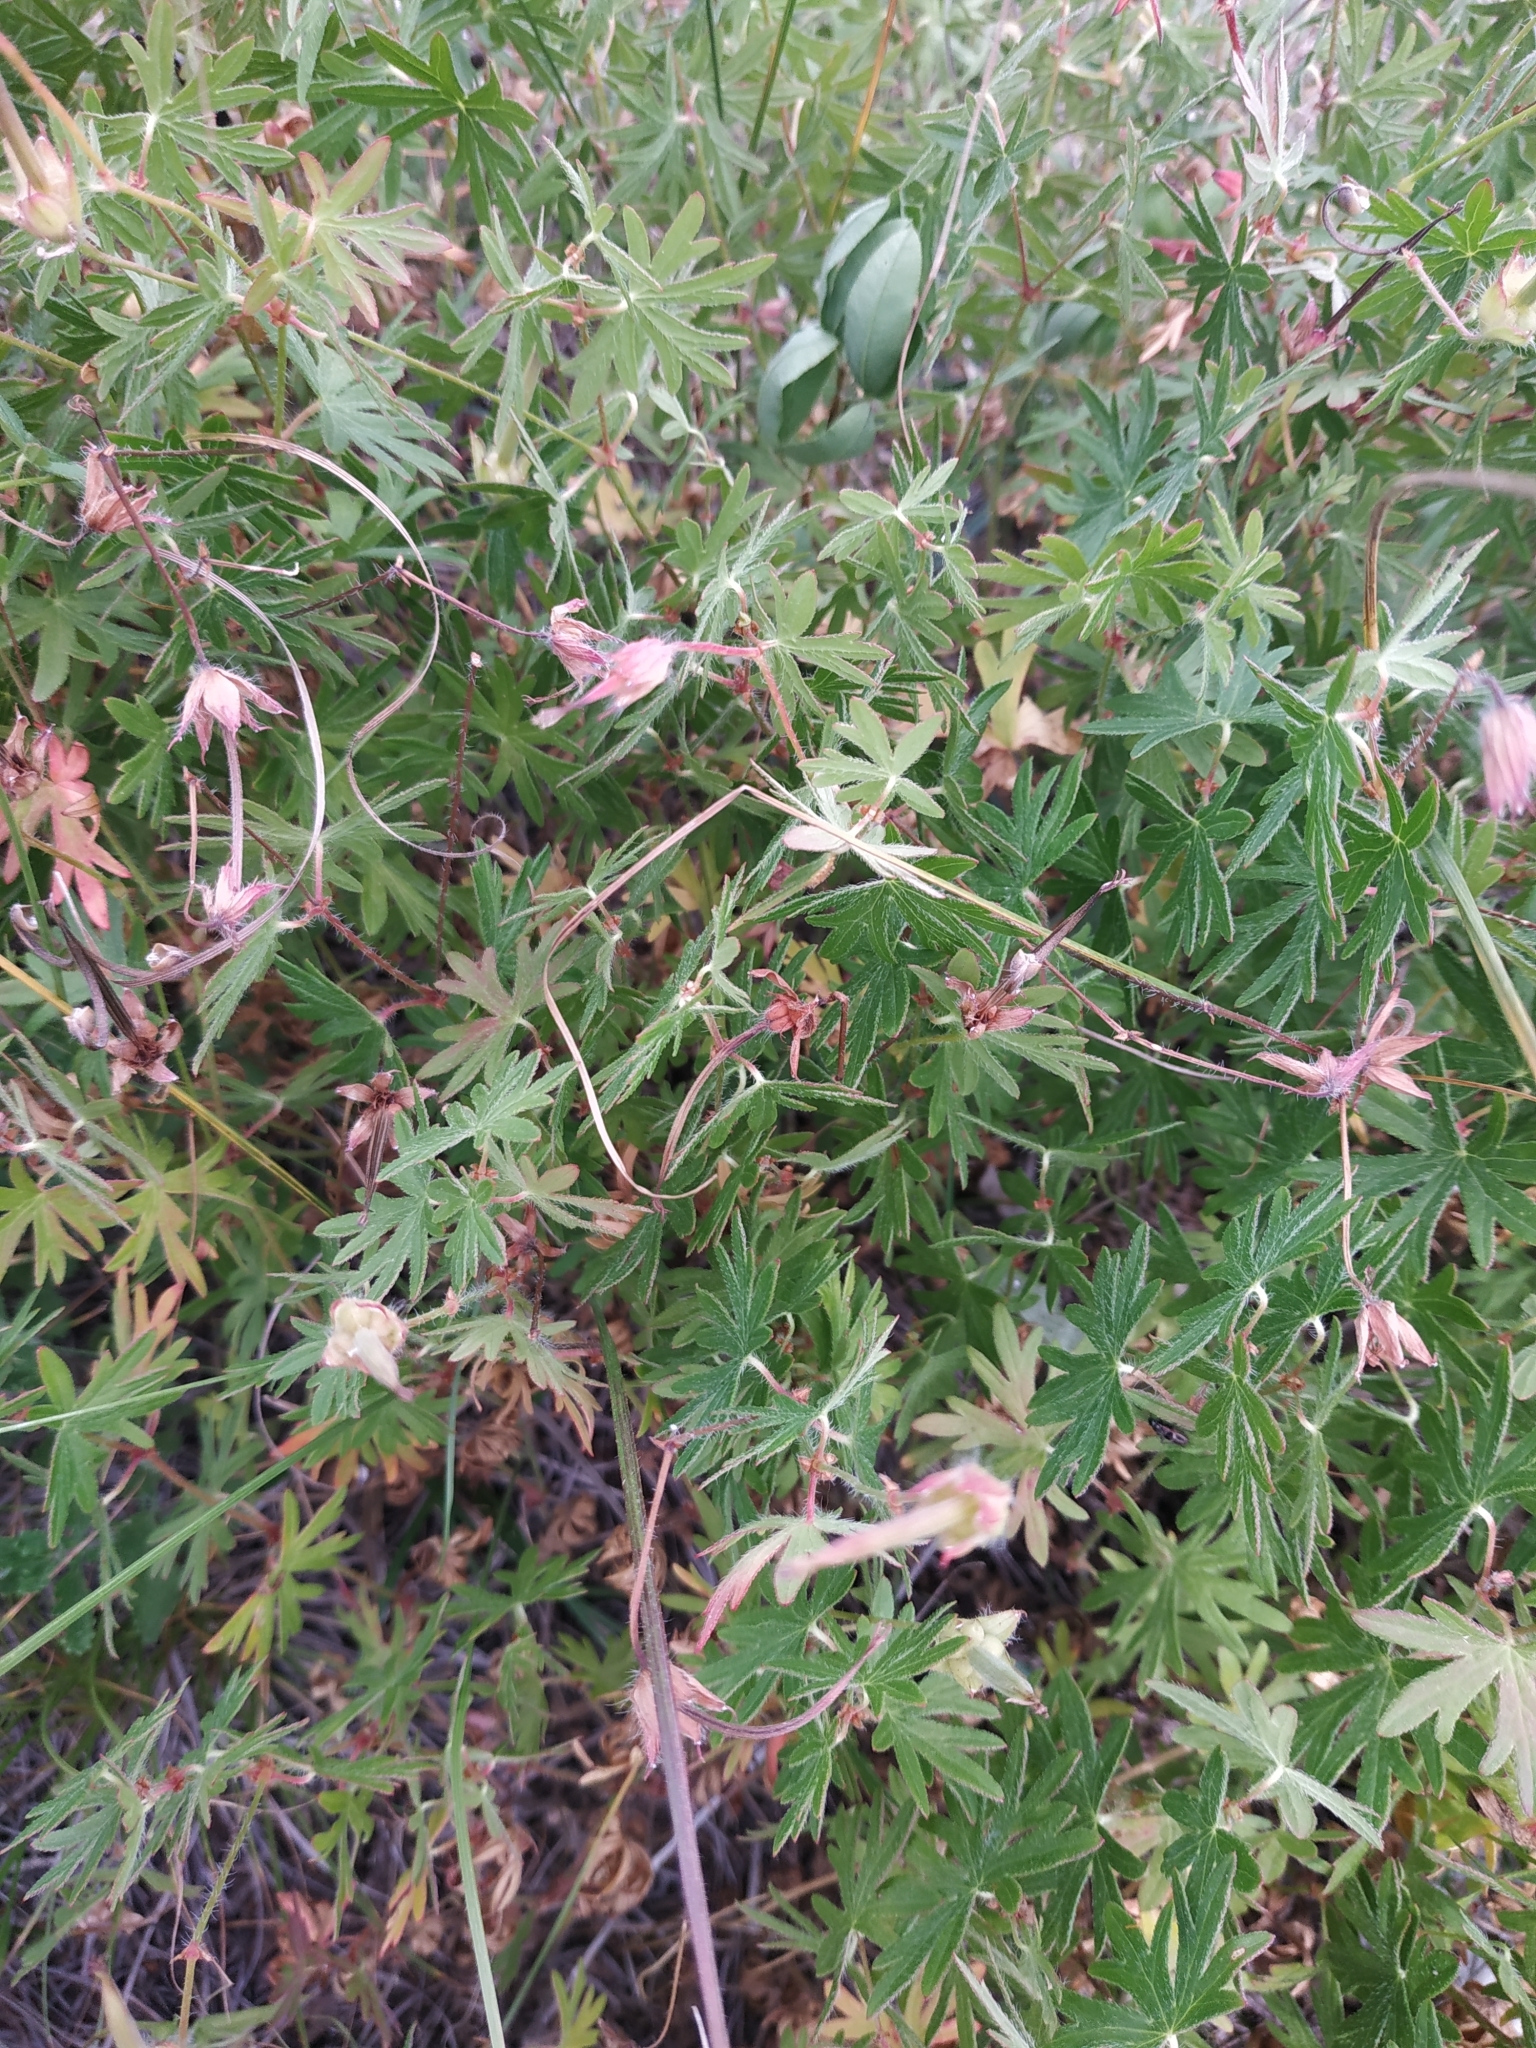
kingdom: Plantae
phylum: Tracheophyta
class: Magnoliopsida
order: Geraniales
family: Geraniaceae
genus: Geranium
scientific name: Geranium sanguineum
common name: Bloody crane's-bill
